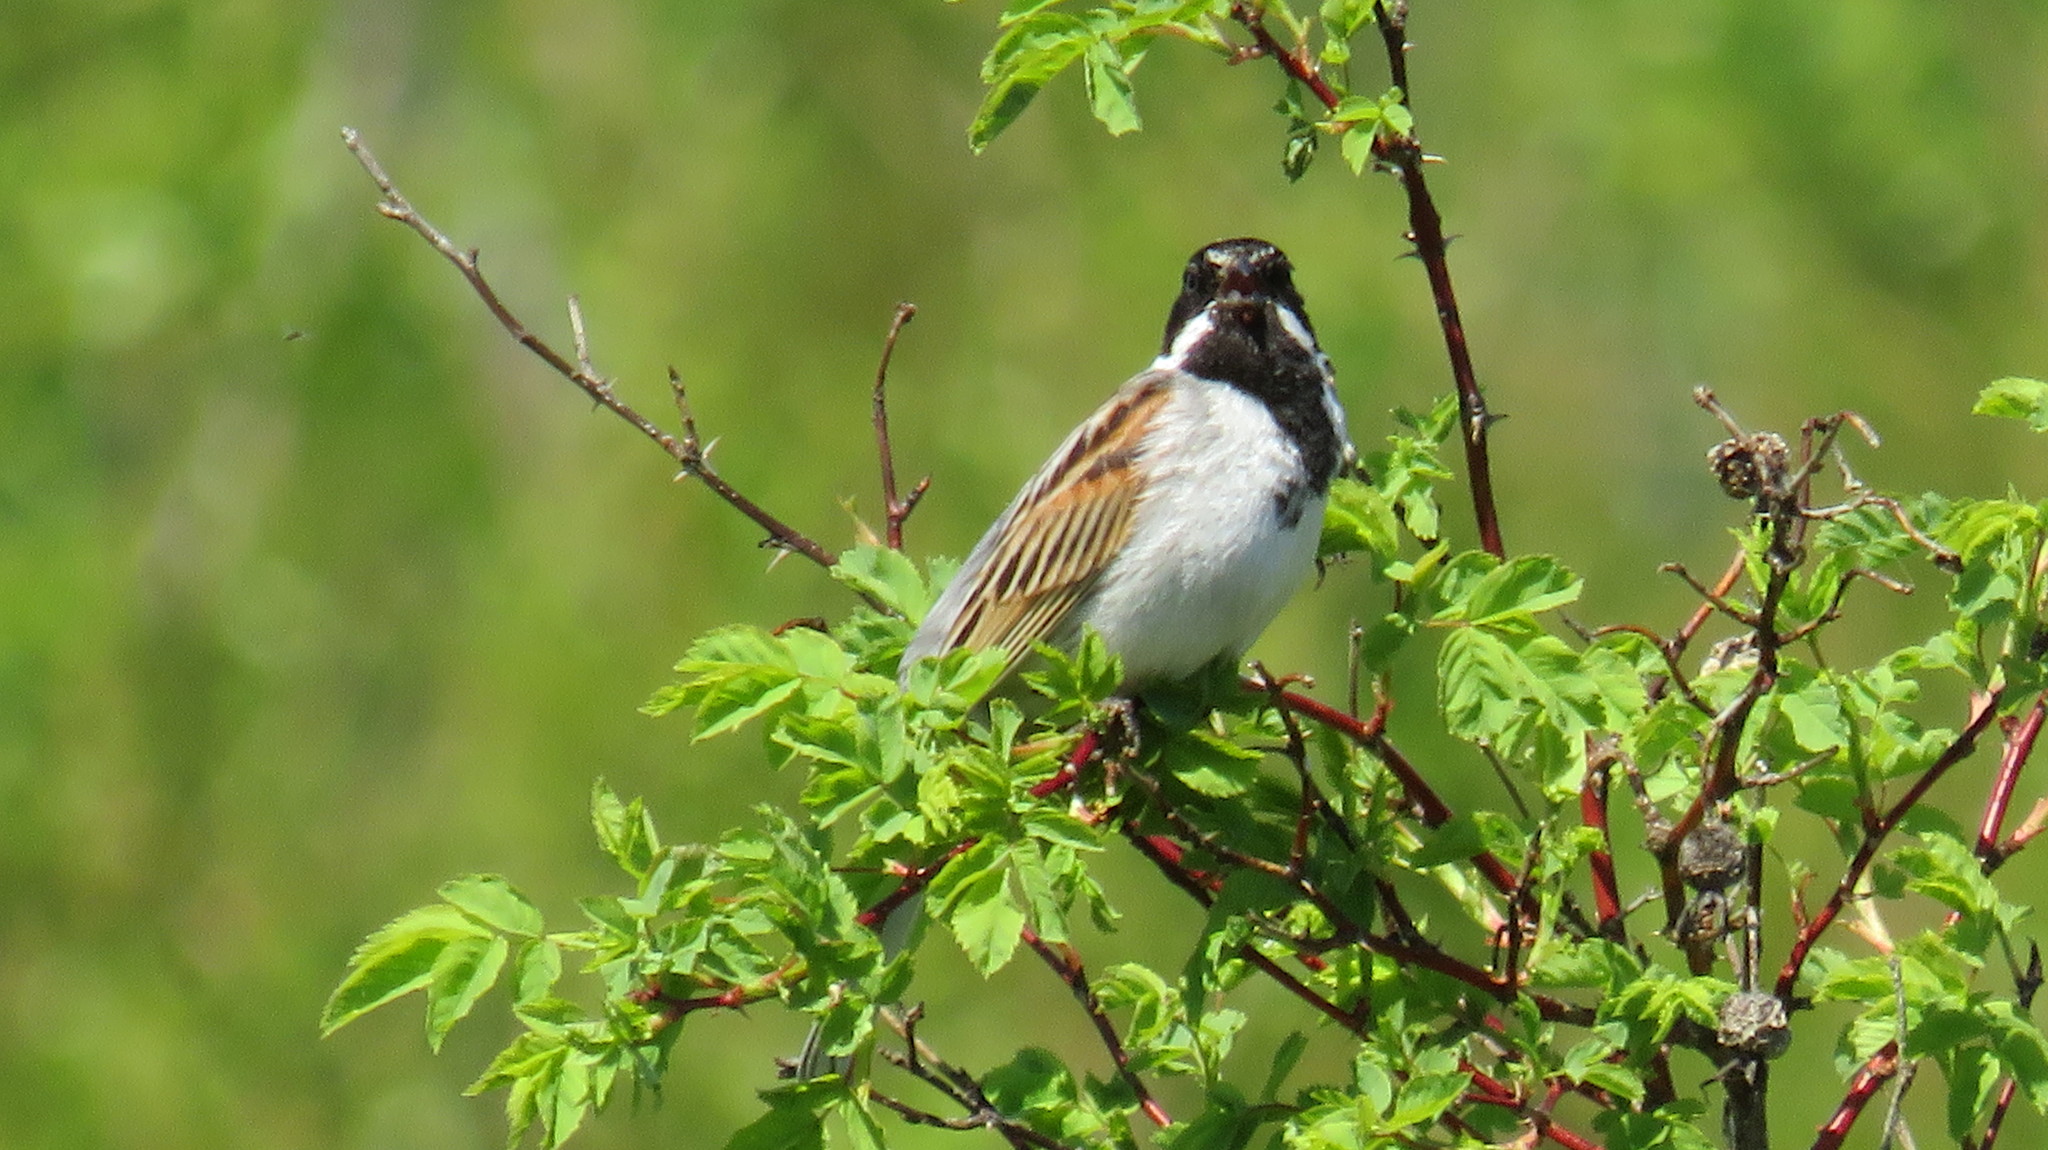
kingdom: Animalia
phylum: Chordata
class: Aves
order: Passeriformes
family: Emberizidae
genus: Emberiza
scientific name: Emberiza schoeniclus
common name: Reed bunting
